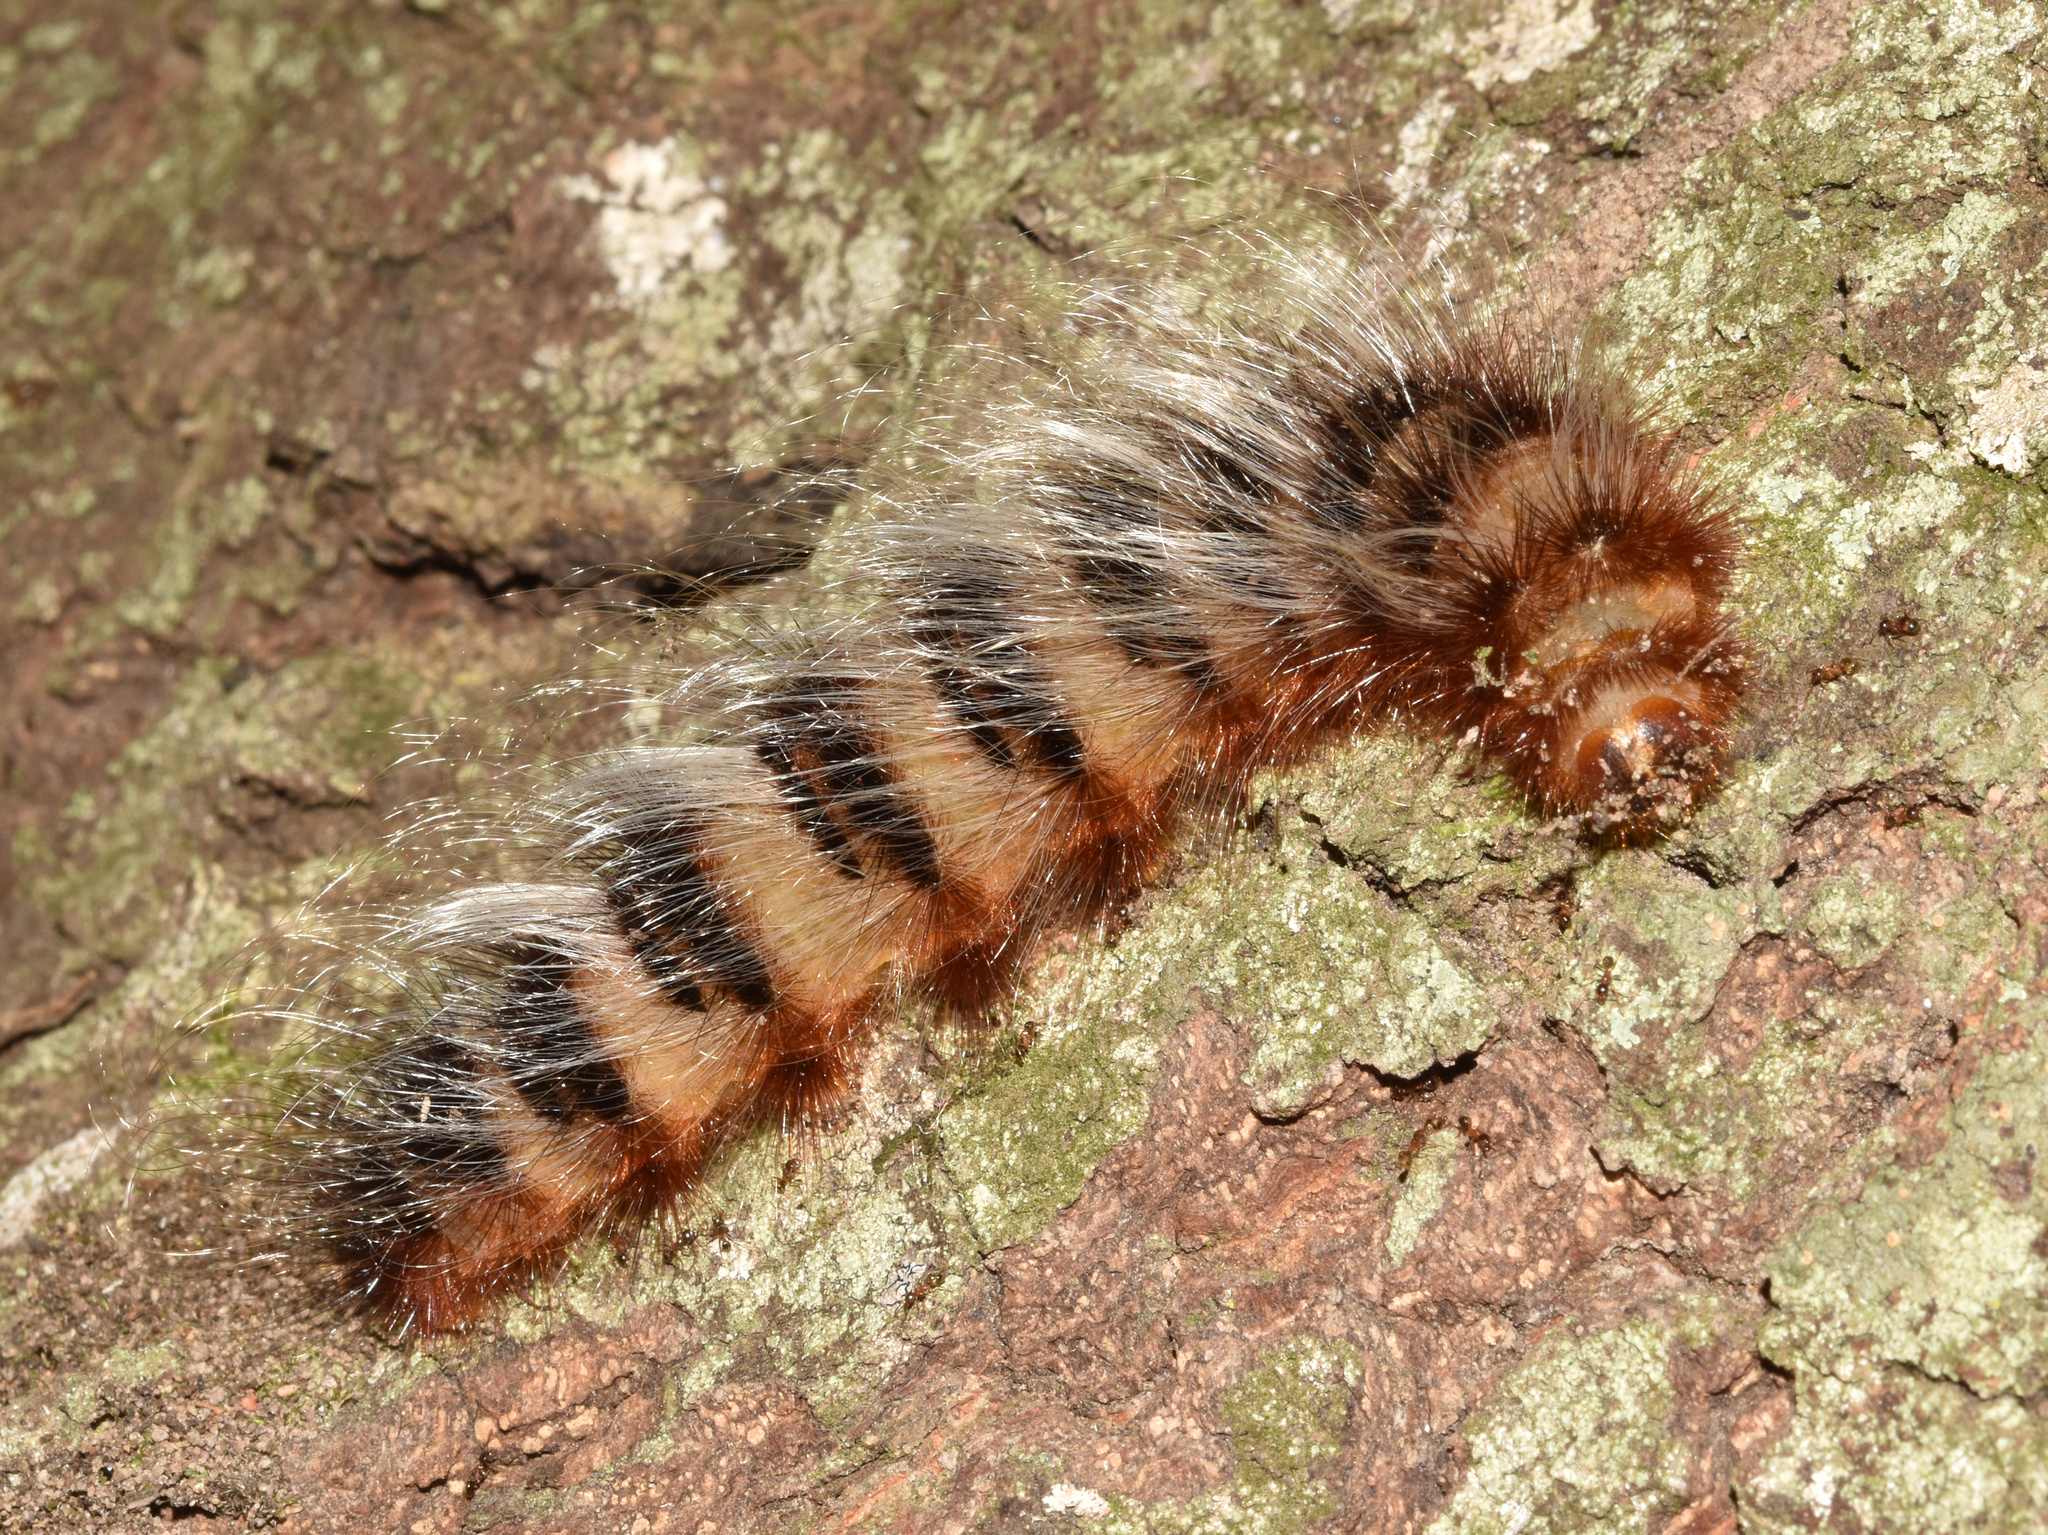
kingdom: Animalia
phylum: Arthropoda
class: Insecta
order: Lepidoptera
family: Eupterotidae
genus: Striphnopteryx
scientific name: Striphnopteryx edulis
